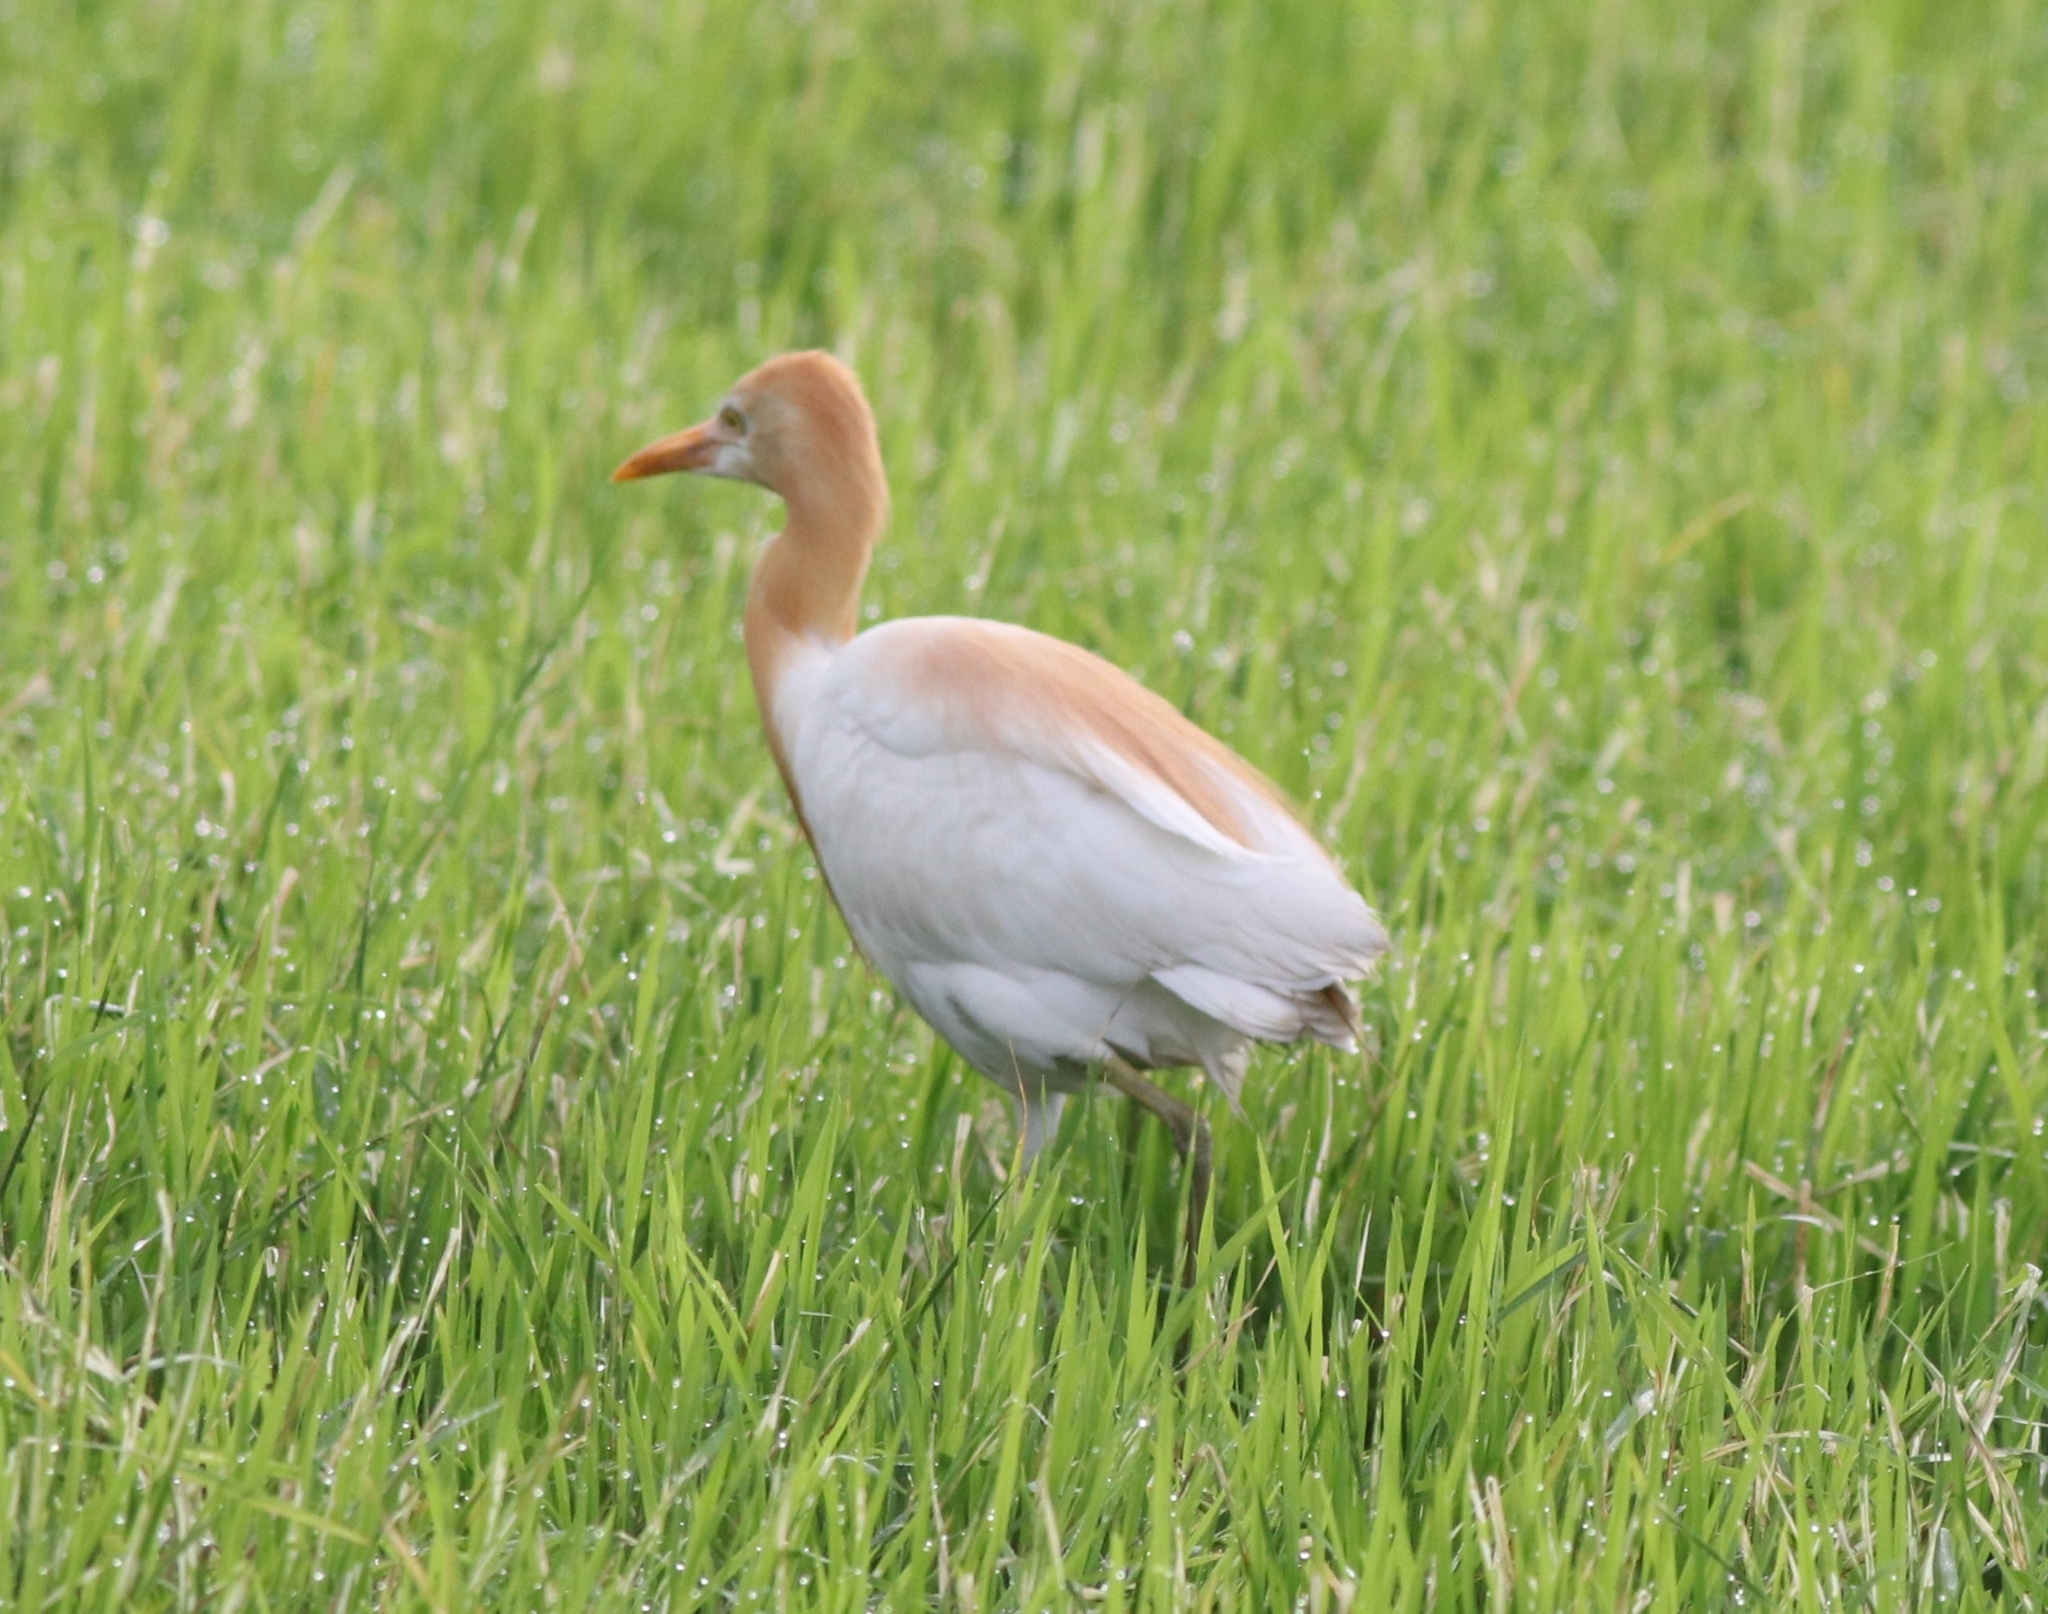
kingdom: Animalia
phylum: Chordata
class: Aves
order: Pelecaniformes
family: Ardeidae
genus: Bubulcus
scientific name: Bubulcus coromandus
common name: Eastern cattle egret
